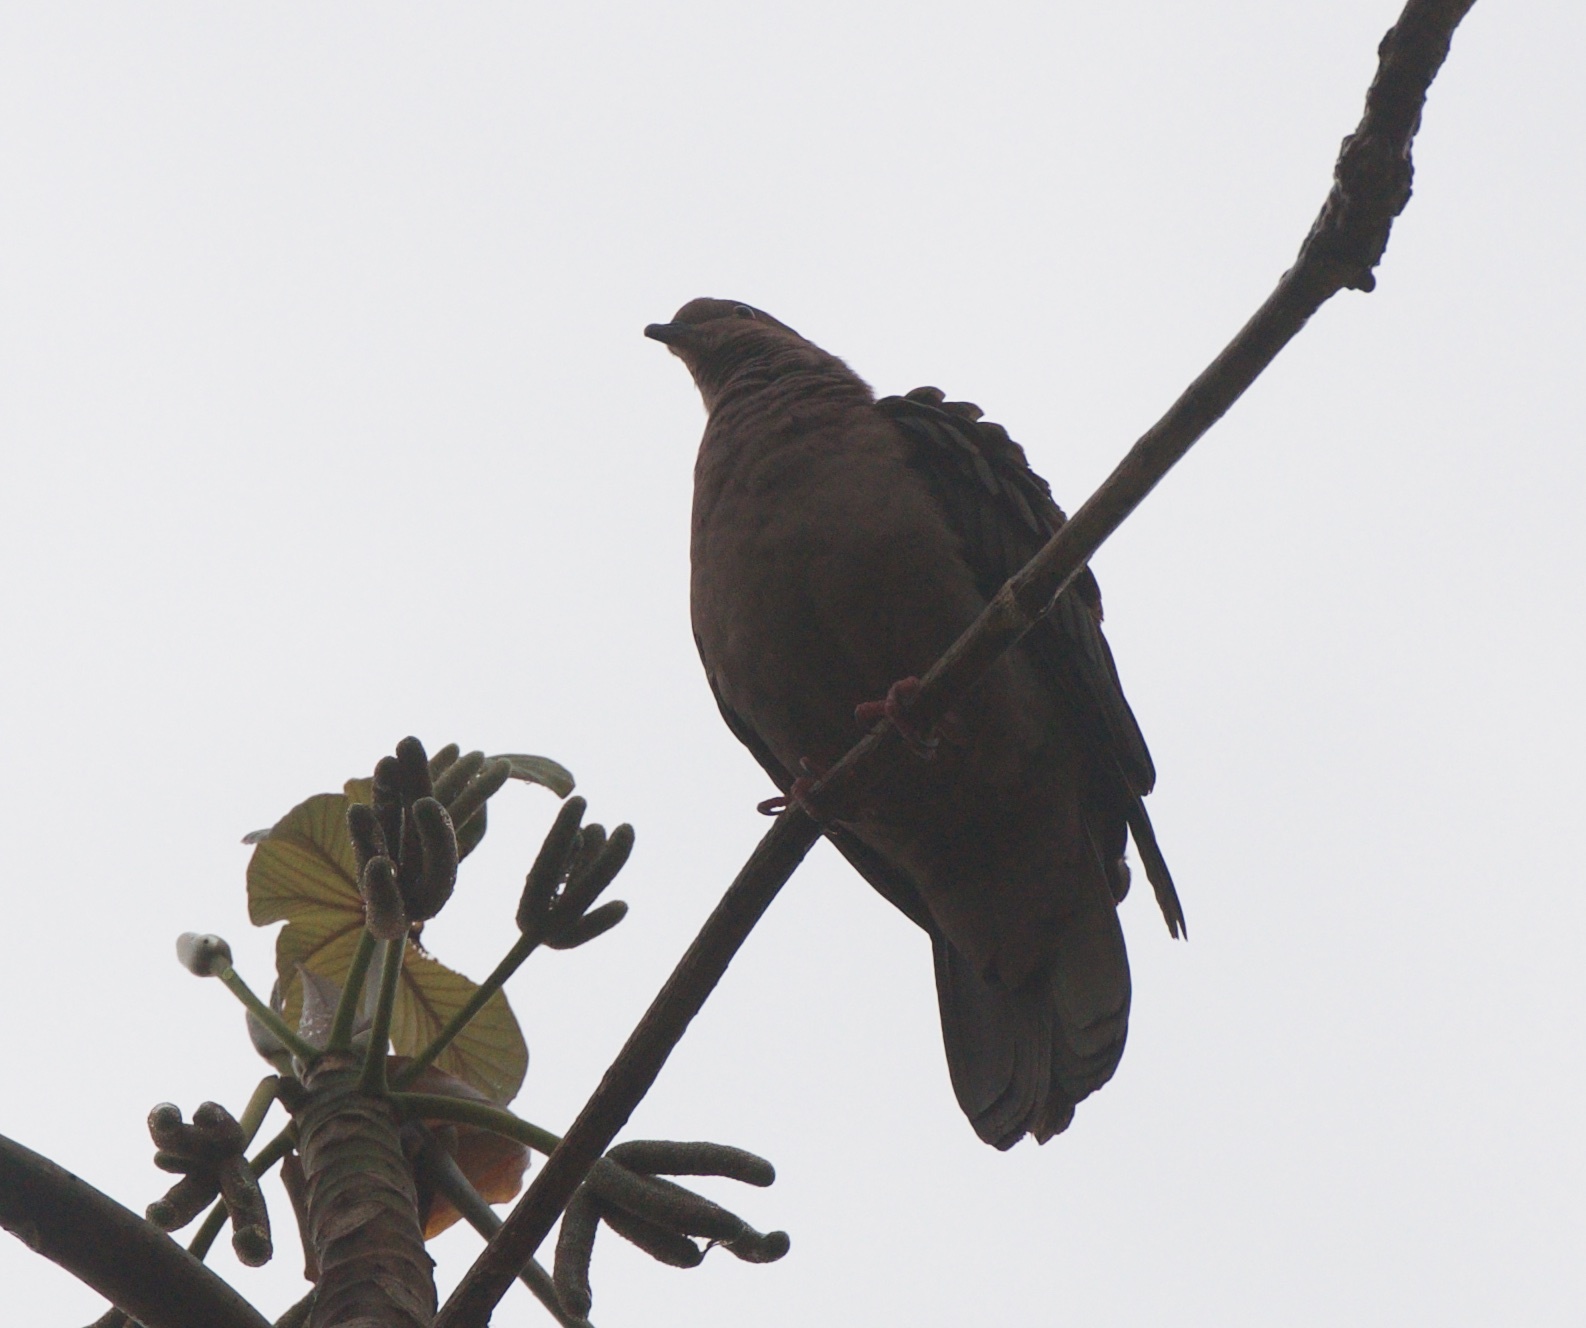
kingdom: Animalia
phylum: Chordata
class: Aves
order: Columbiformes
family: Columbidae
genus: Patagioenas
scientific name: Patagioenas nigrirostris
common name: Short-billed pigeon
